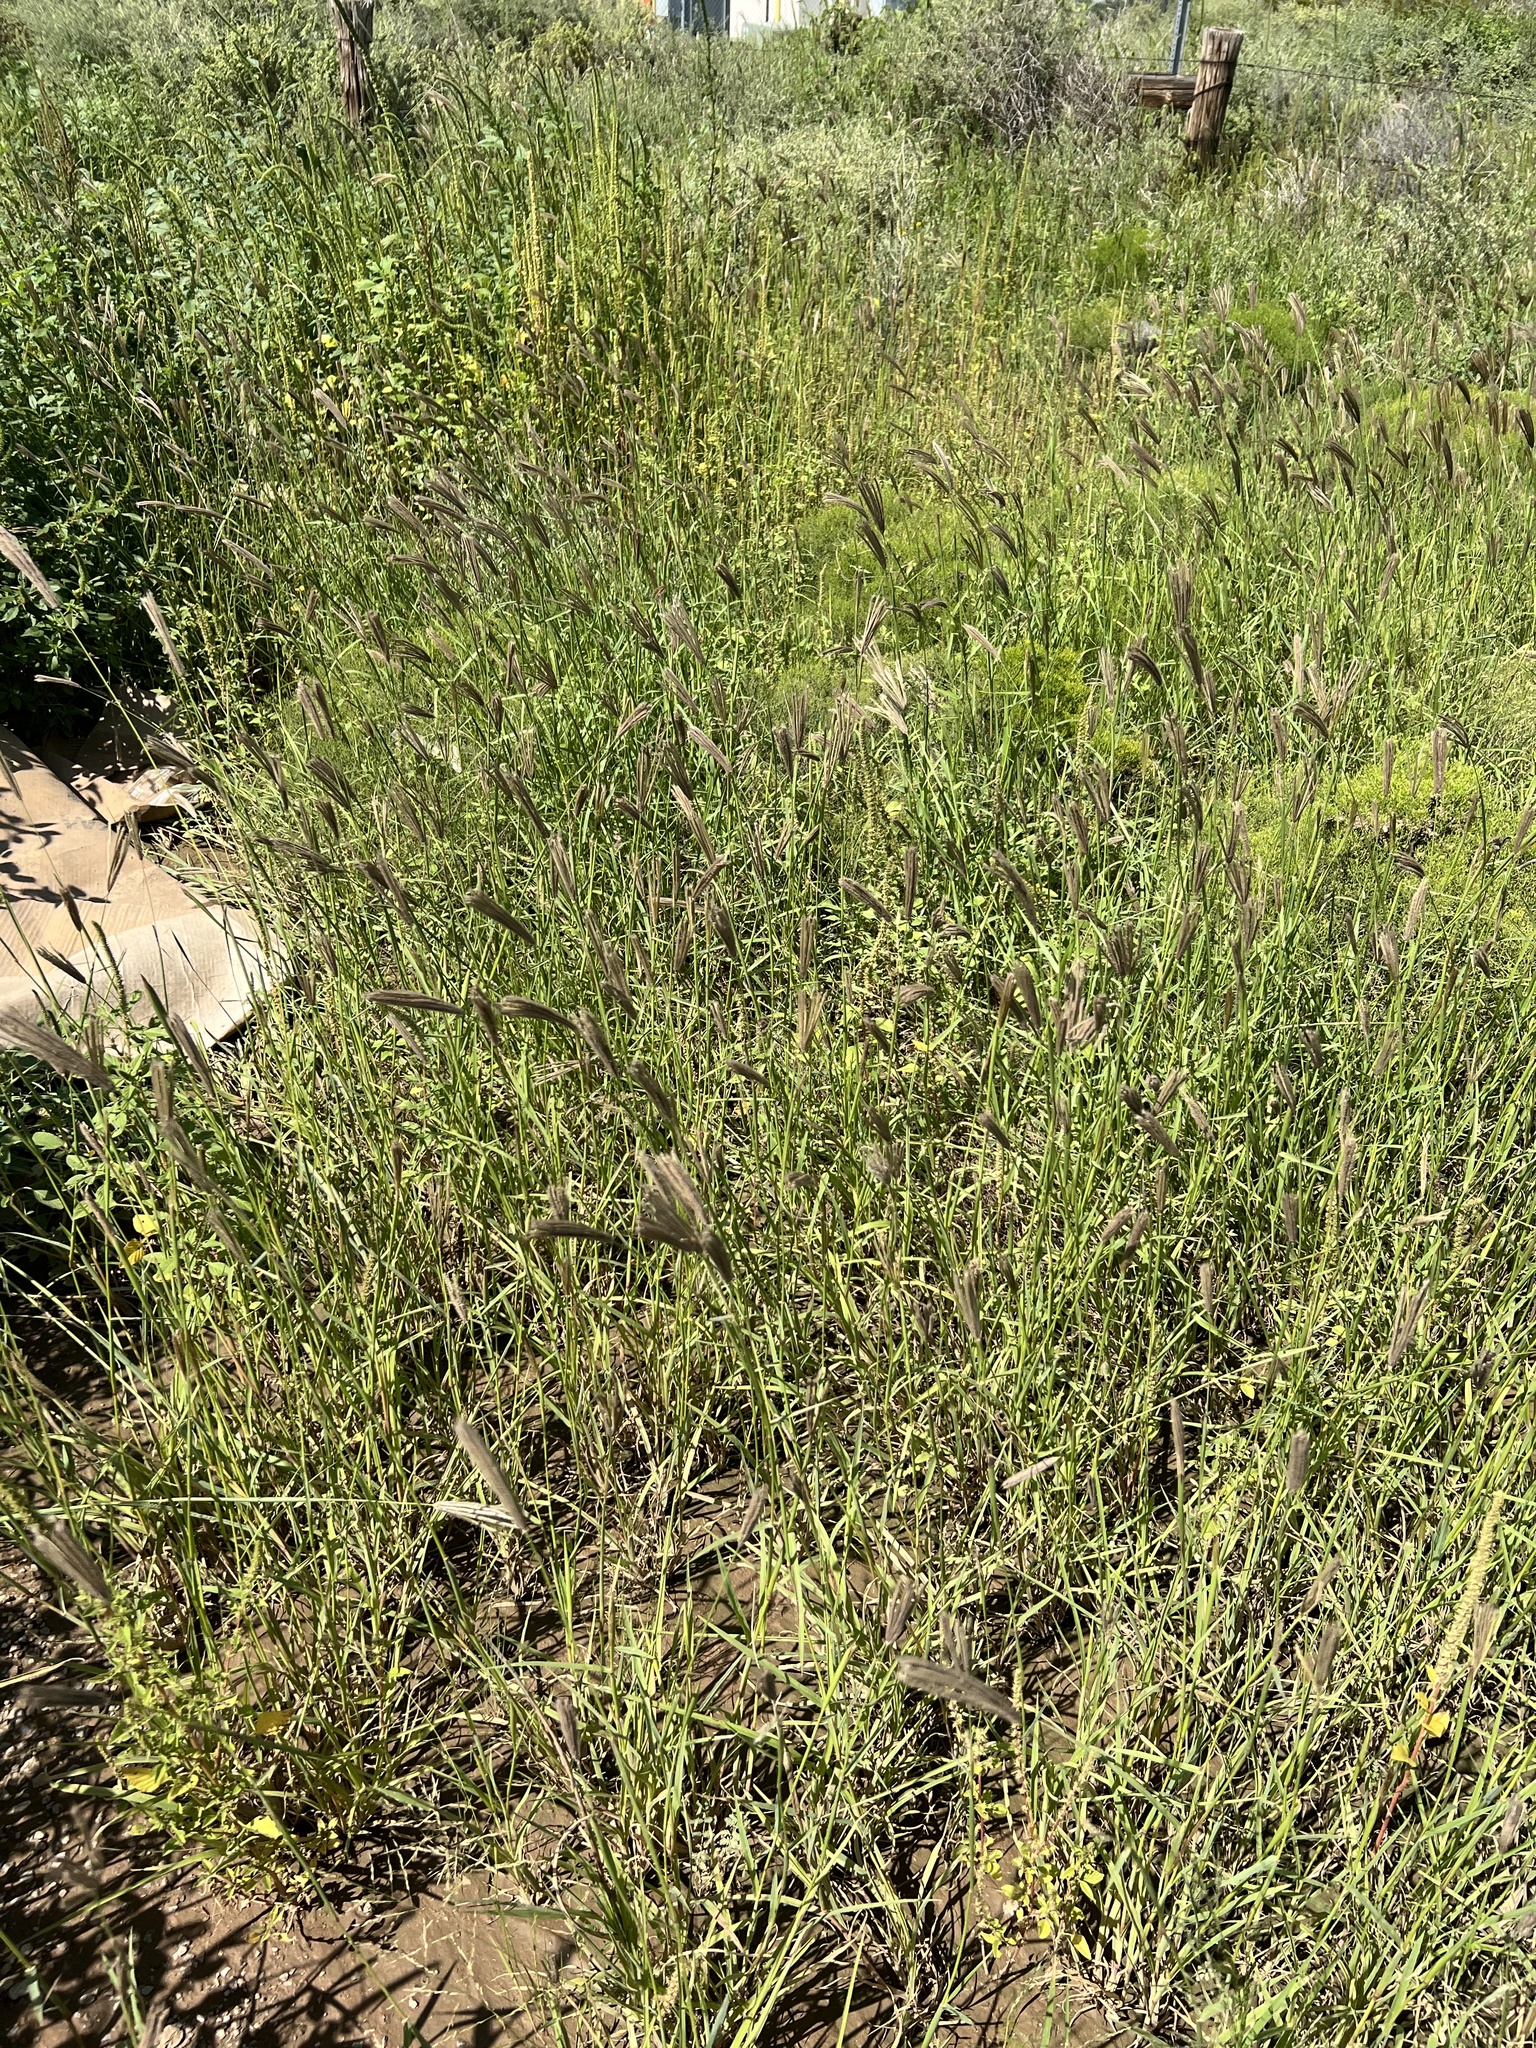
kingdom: Plantae
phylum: Tracheophyta
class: Liliopsida
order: Poales
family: Poaceae
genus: Chloris
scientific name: Chloris virgata
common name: Feathery rhodes-grass
